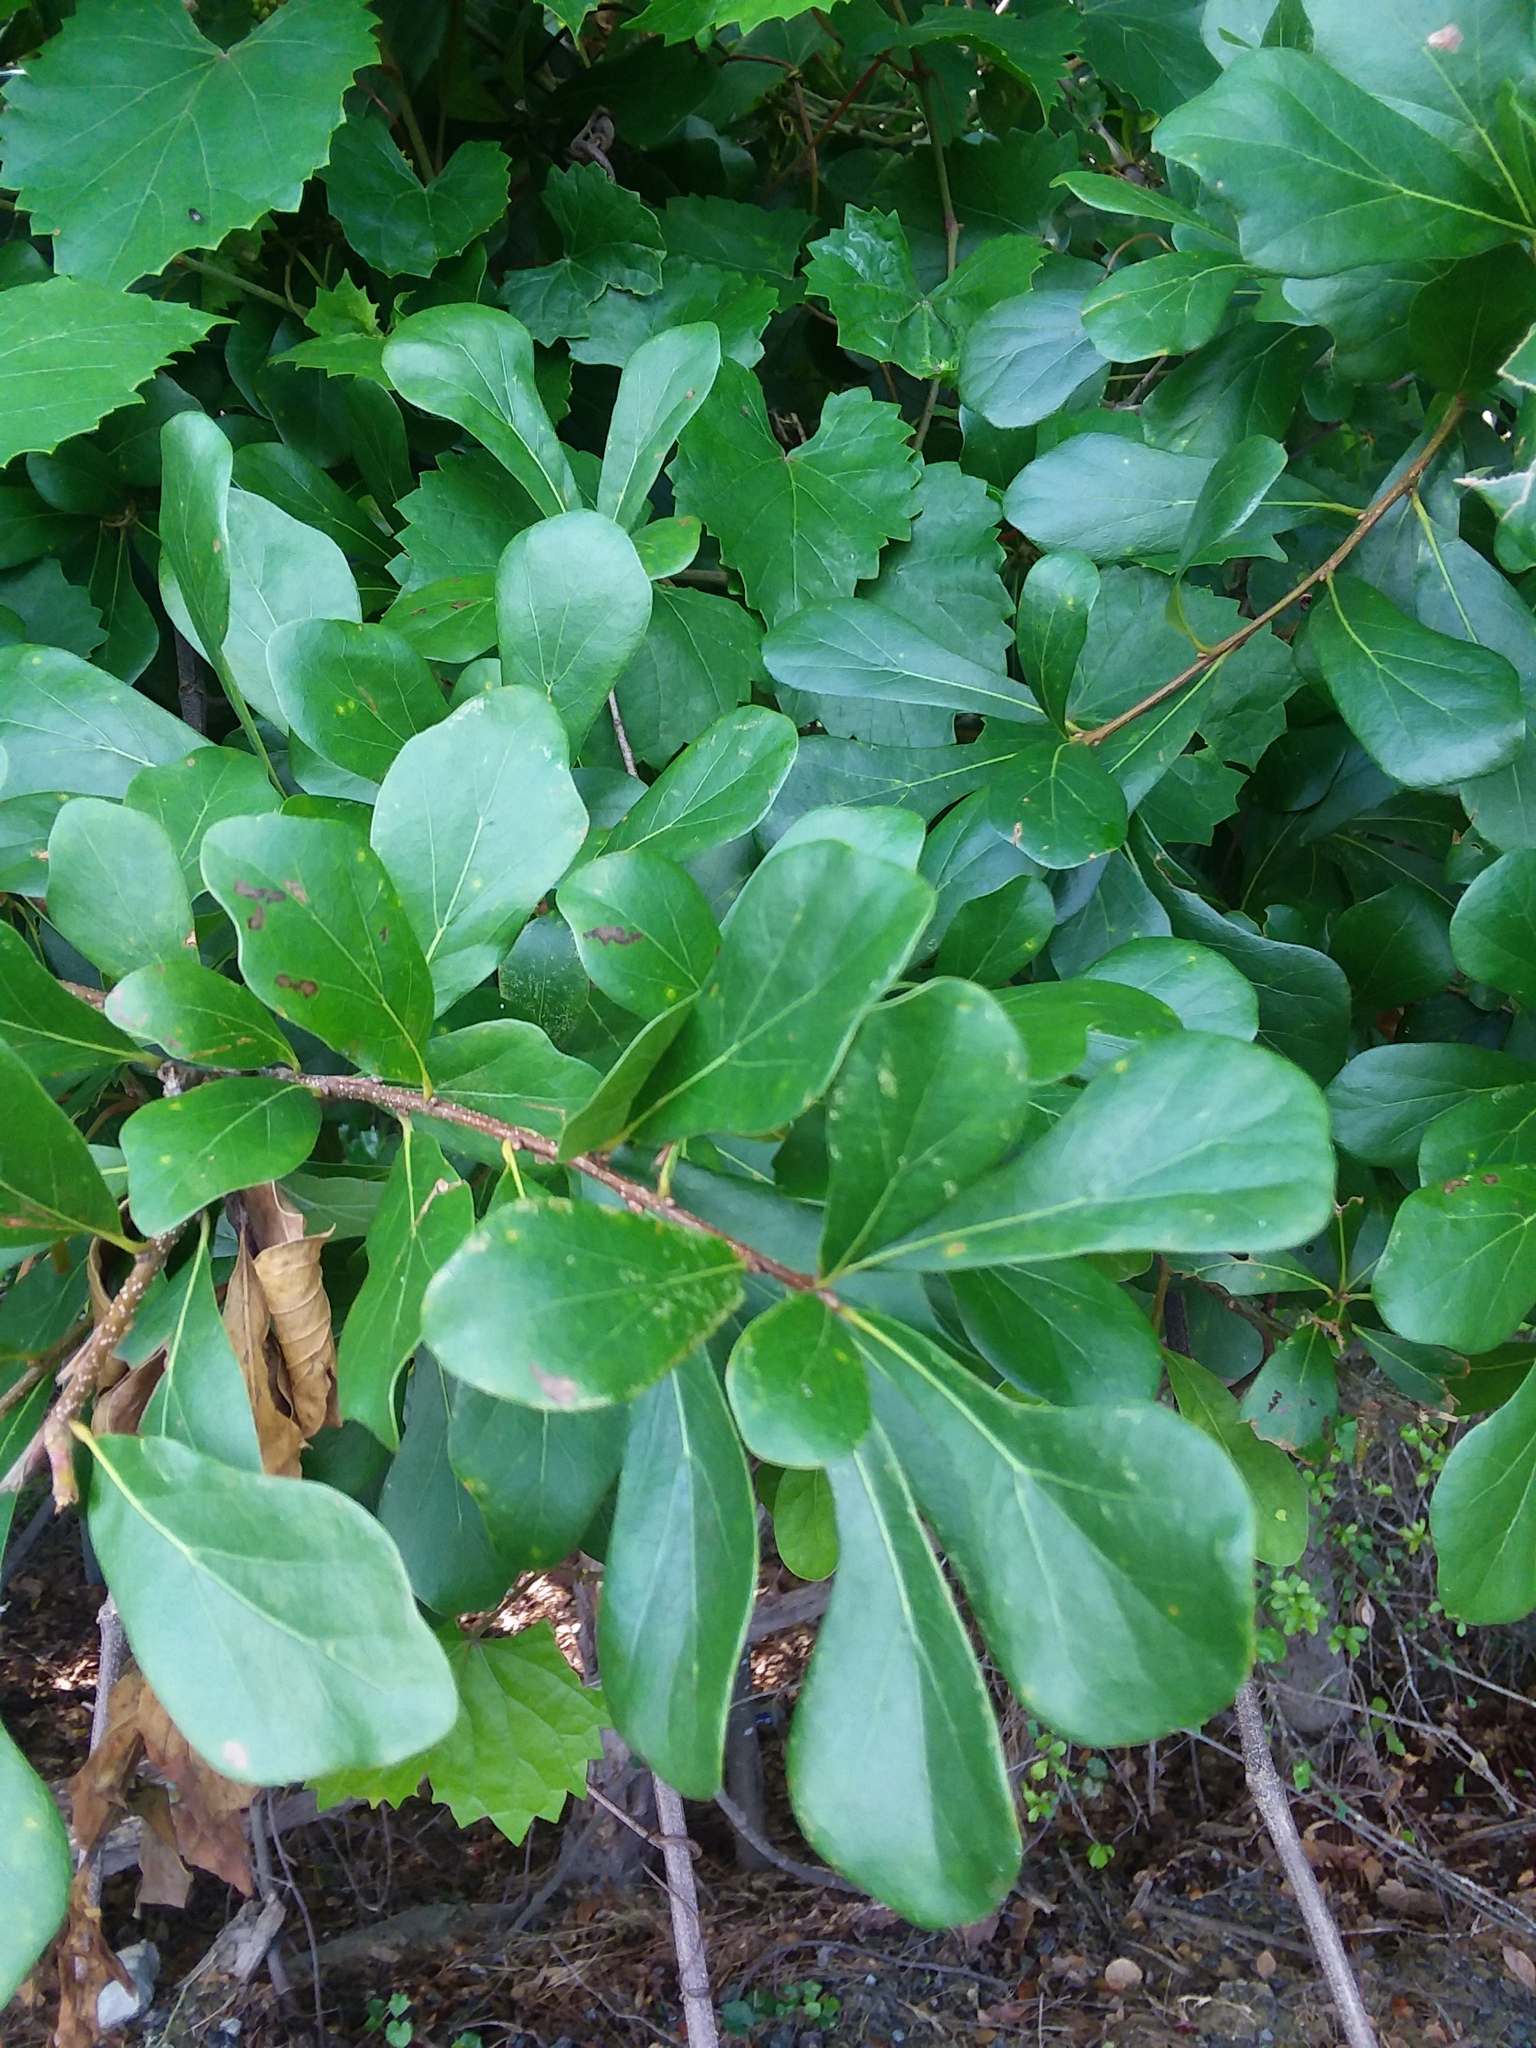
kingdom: Plantae
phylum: Tracheophyta
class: Magnoliopsida
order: Fagales
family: Fagaceae
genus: Quercus
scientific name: Quercus nigra
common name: Water oak
